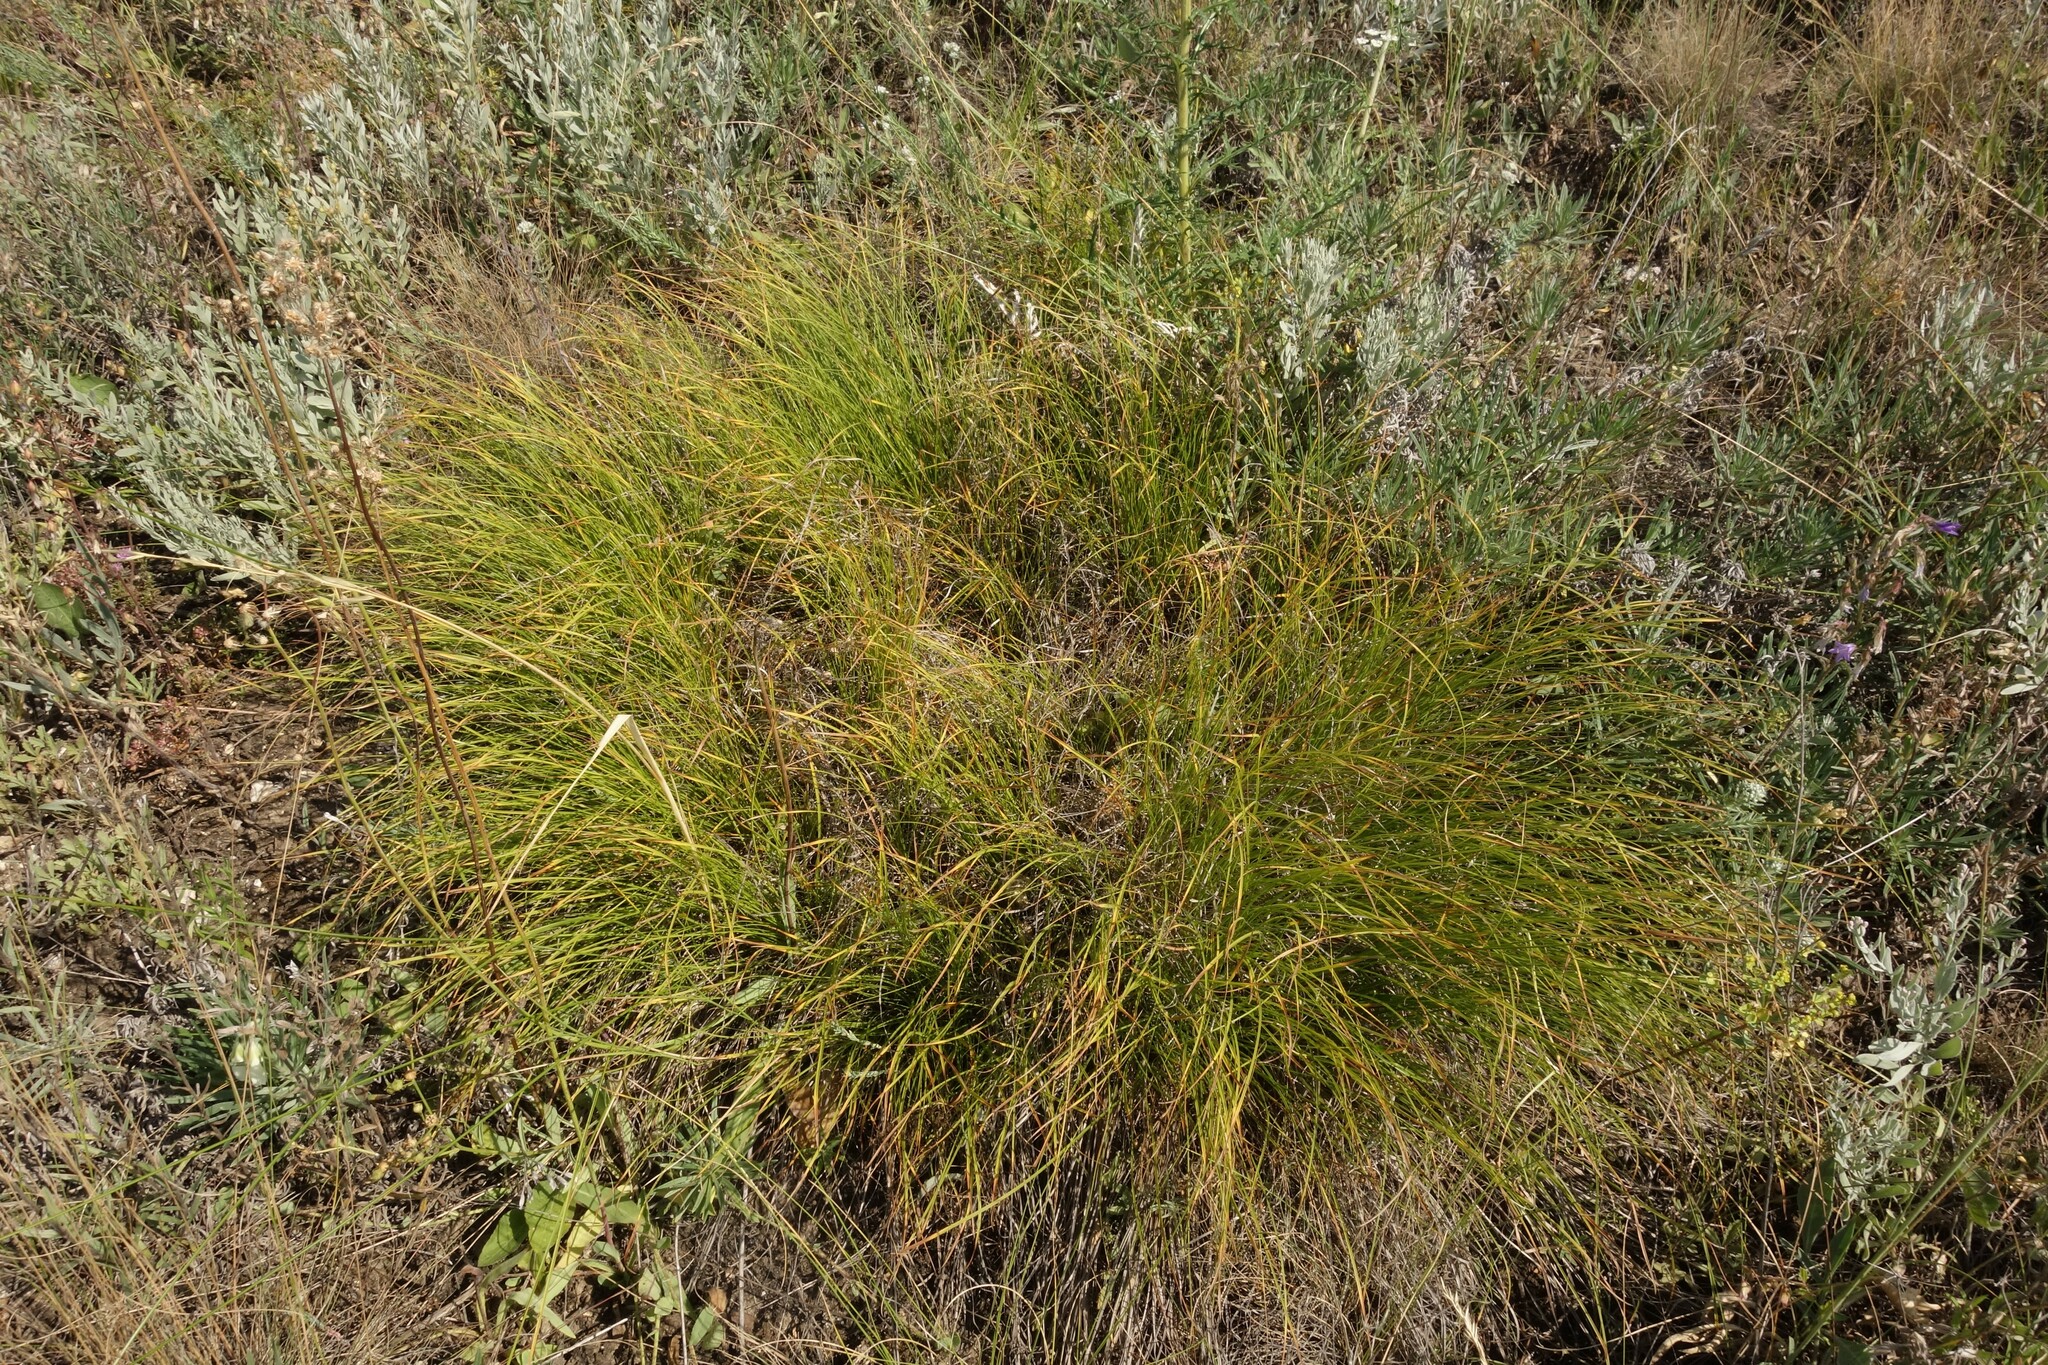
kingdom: Plantae
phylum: Tracheophyta
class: Liliopsida
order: Poales
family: Cyperaceae
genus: Carex
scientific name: Carex humilis
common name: Dwarf sedge
